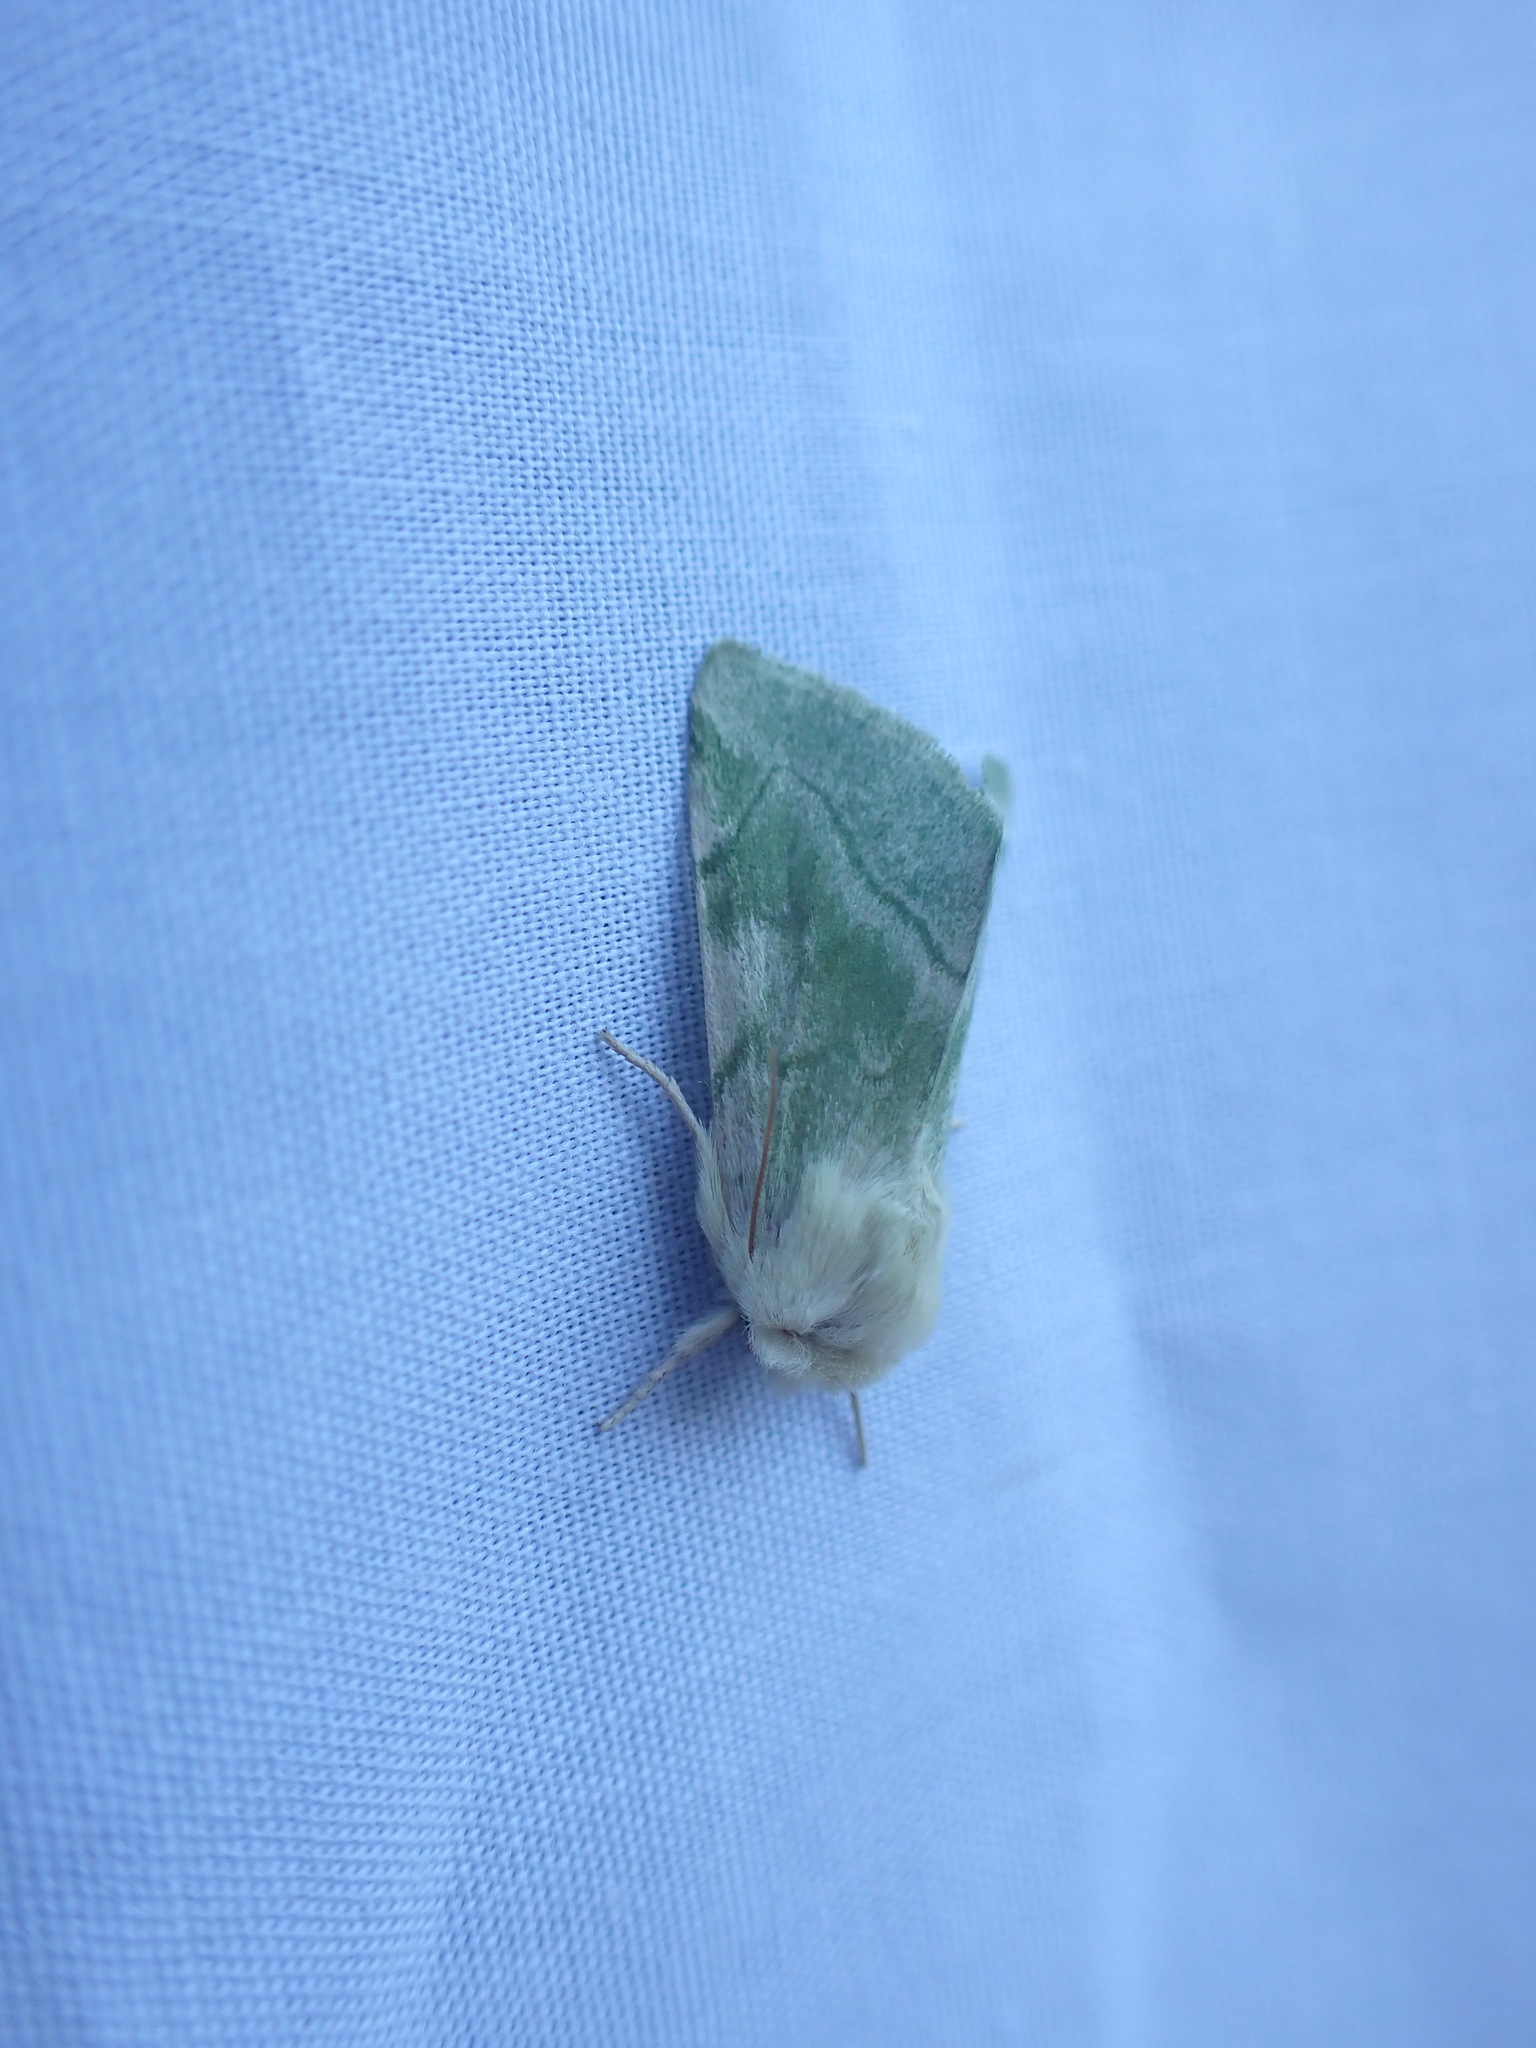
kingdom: Animalia
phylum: Arthropoda
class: Insecta
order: Lepidoptera
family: Noctuidae
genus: Zotheca
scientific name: Zotheca tranquilla
